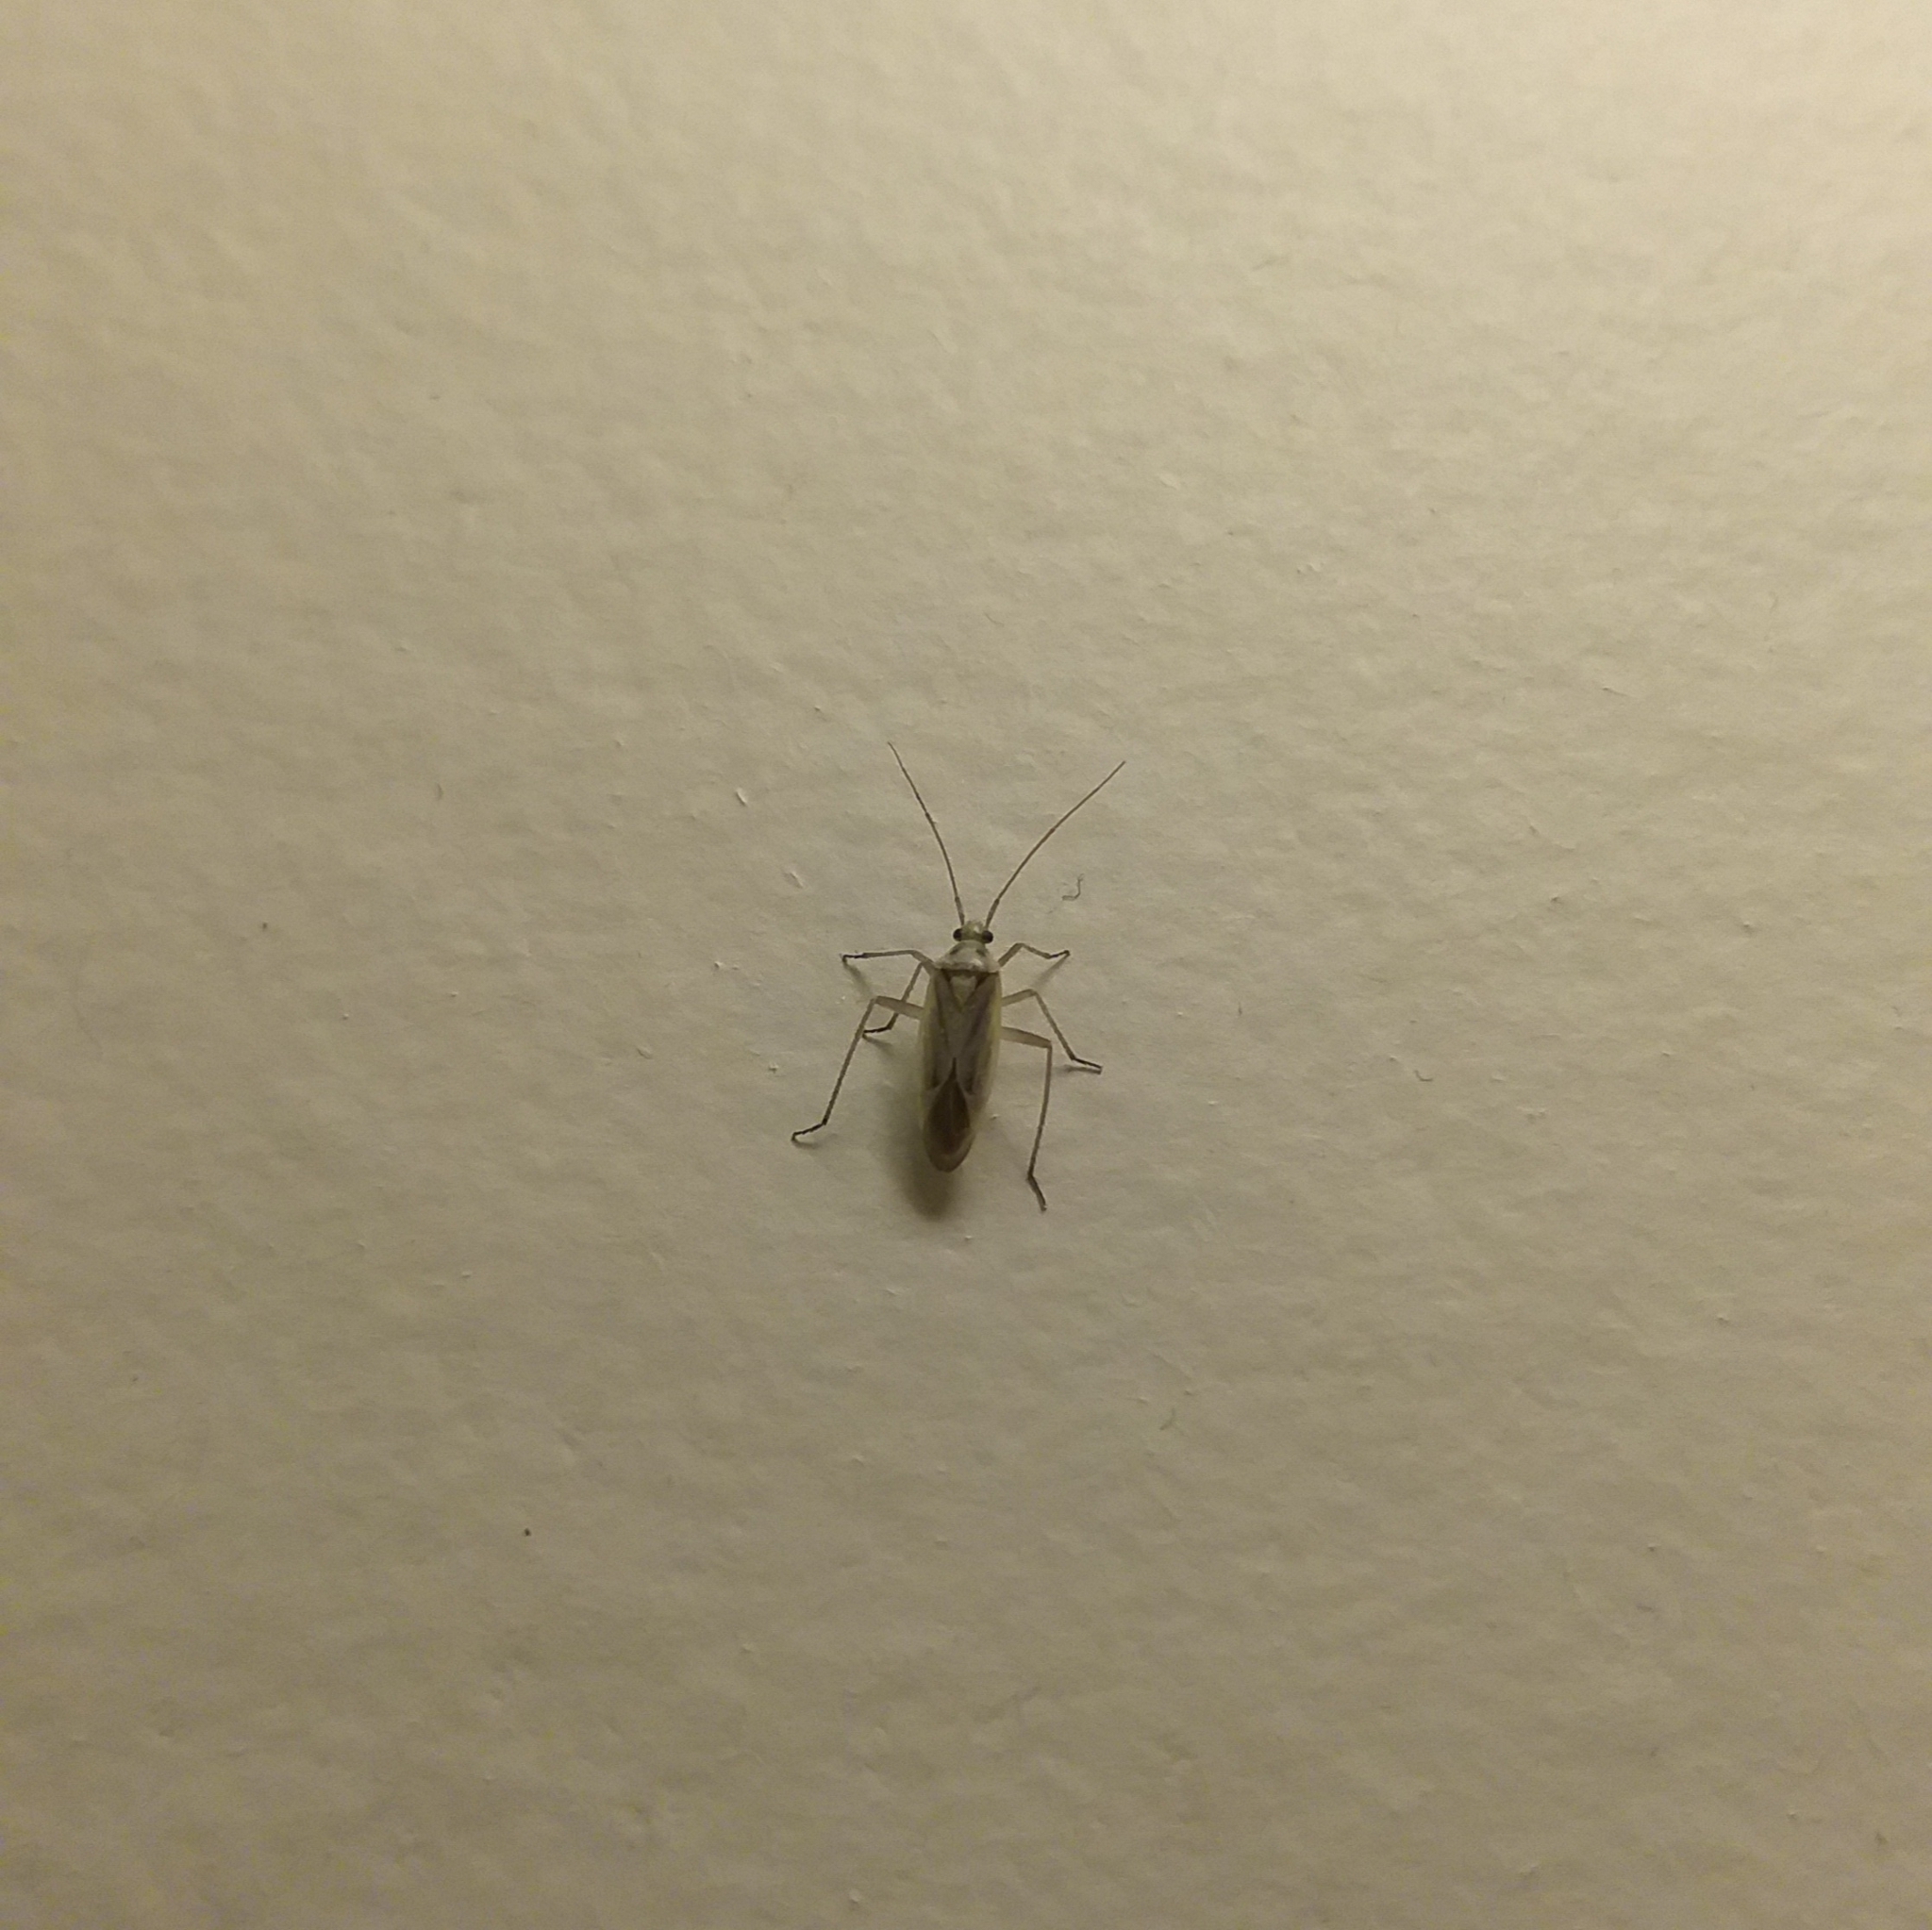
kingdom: Animalia
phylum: Arthropoda
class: Insecta
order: Hemiptera
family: Miridae
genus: Stenotus
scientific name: Stenotus binotatus
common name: Plant bug
